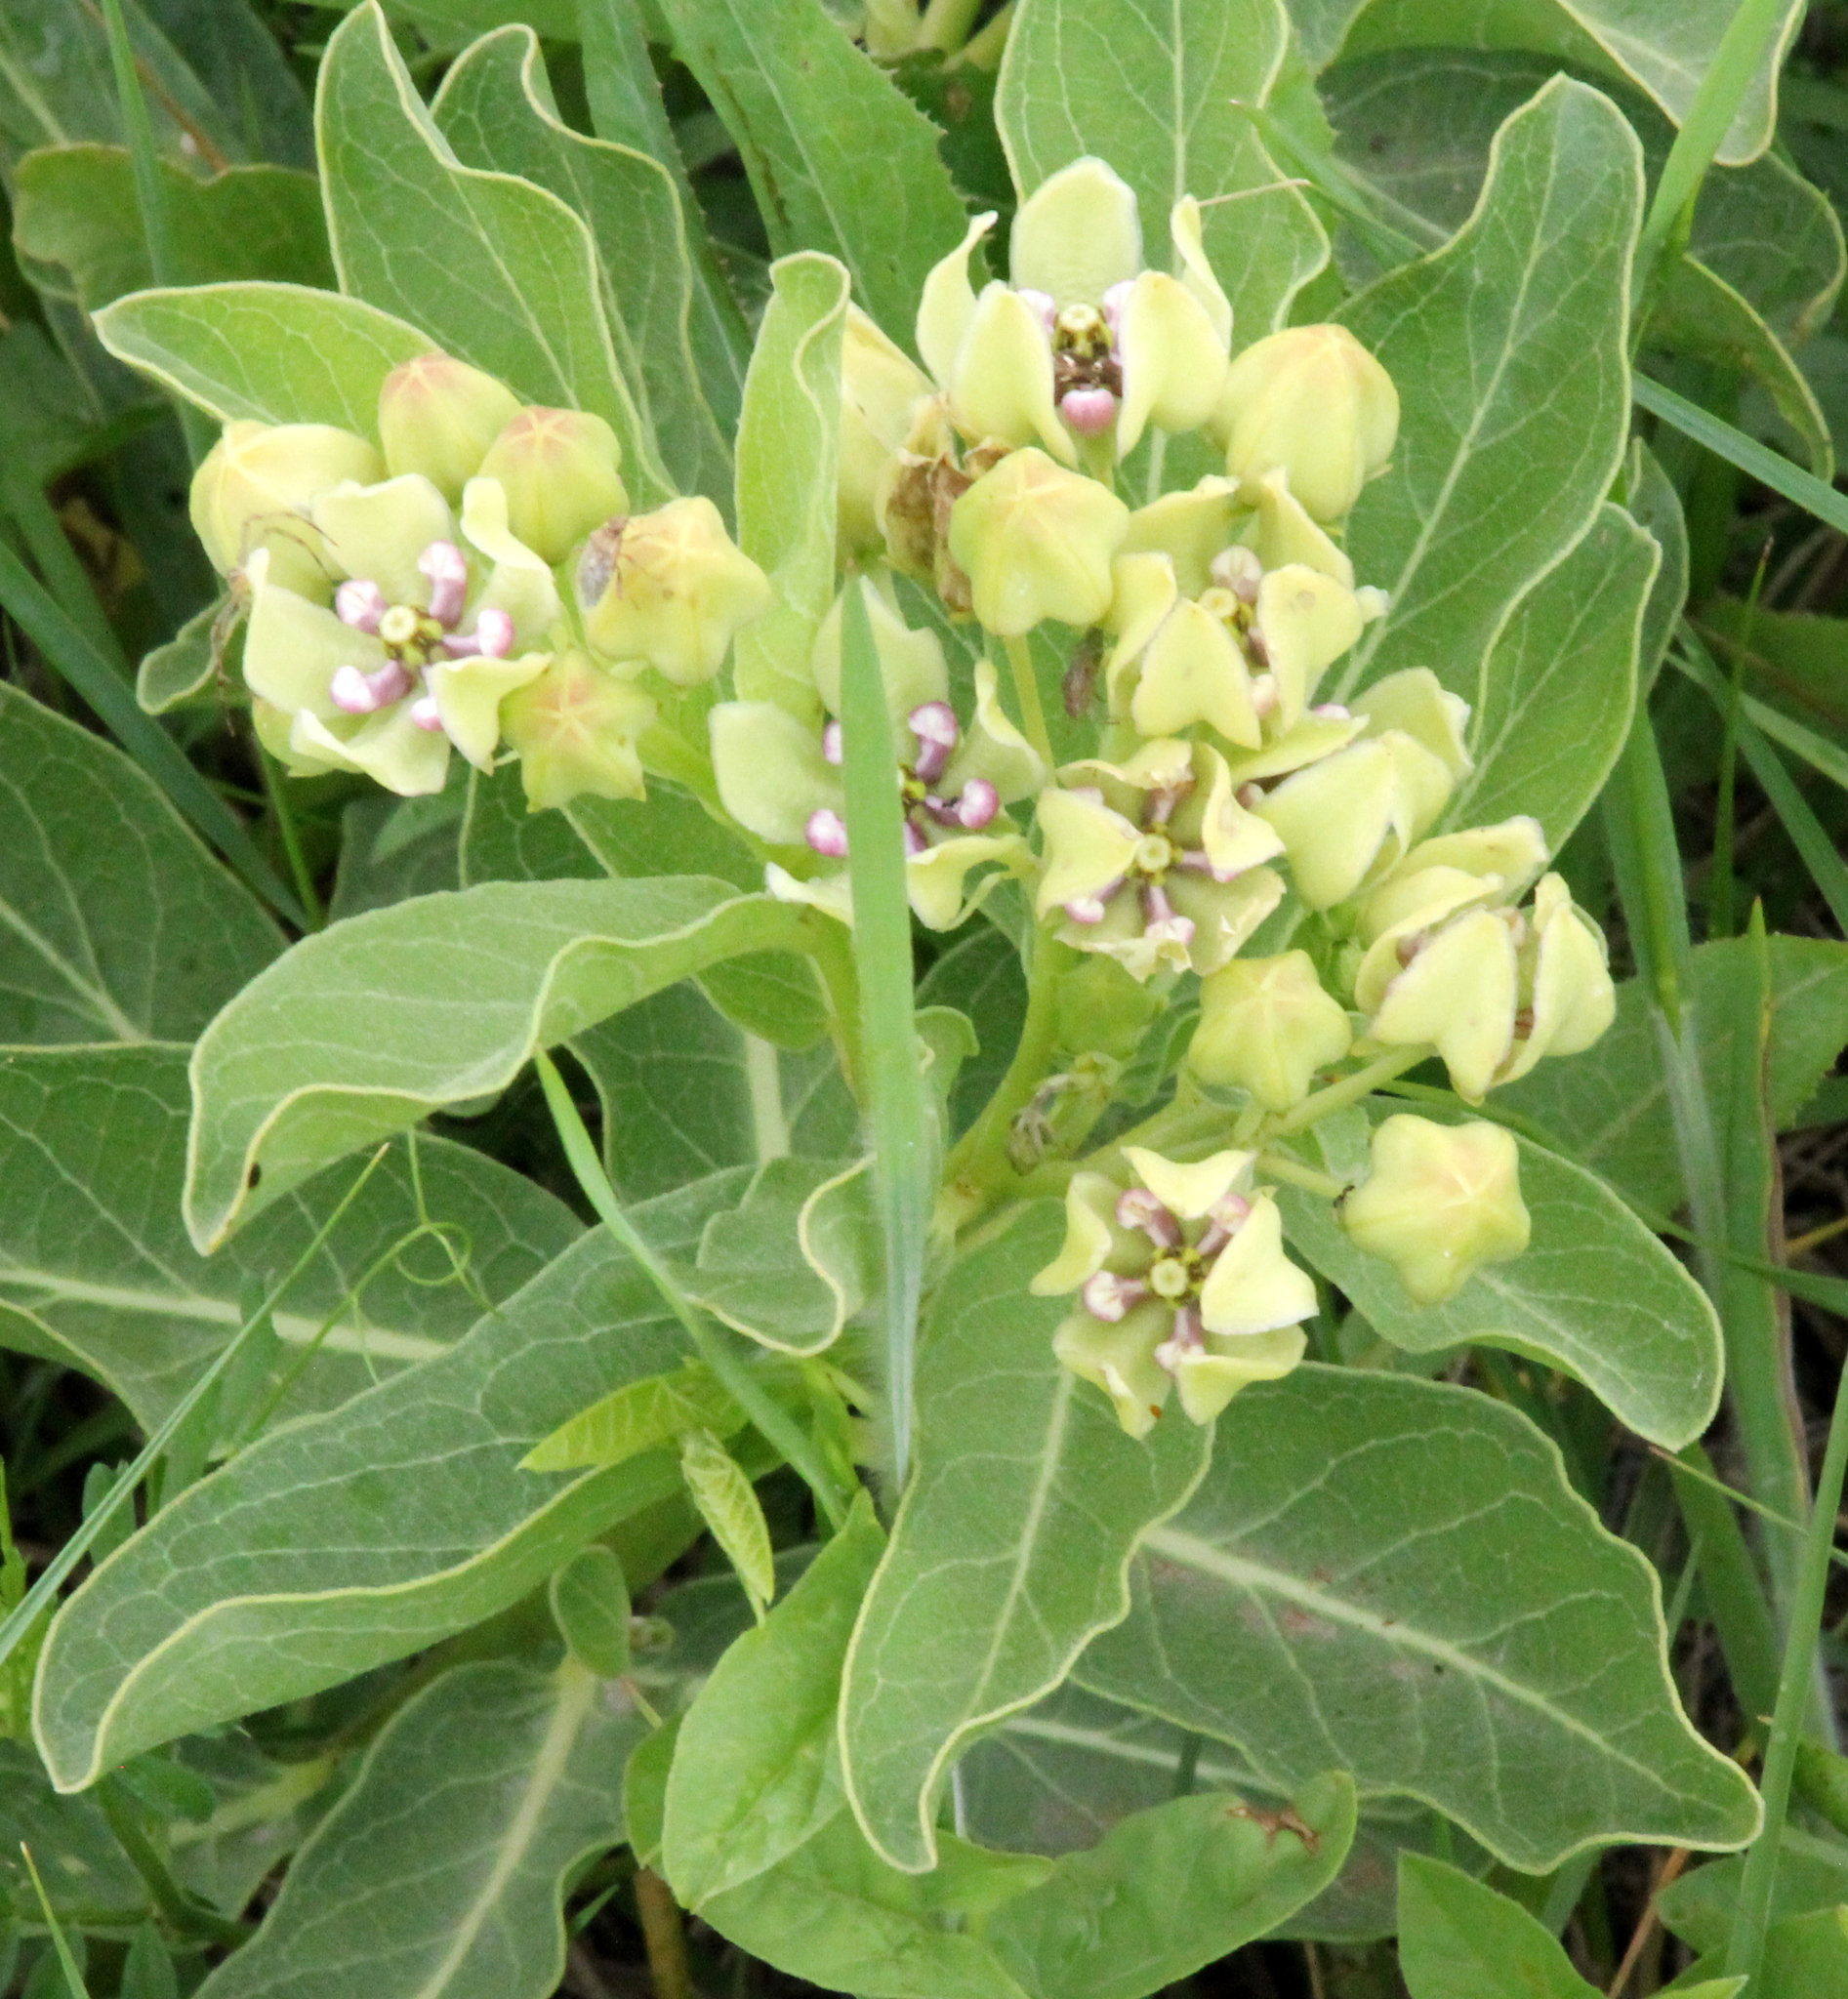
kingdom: Plantae
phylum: Tracheophyta
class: Magnoliopsida
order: Gentianales
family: Apocynaceae
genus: Asclepias
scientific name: Asclepias viridis
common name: Antelope-horns
